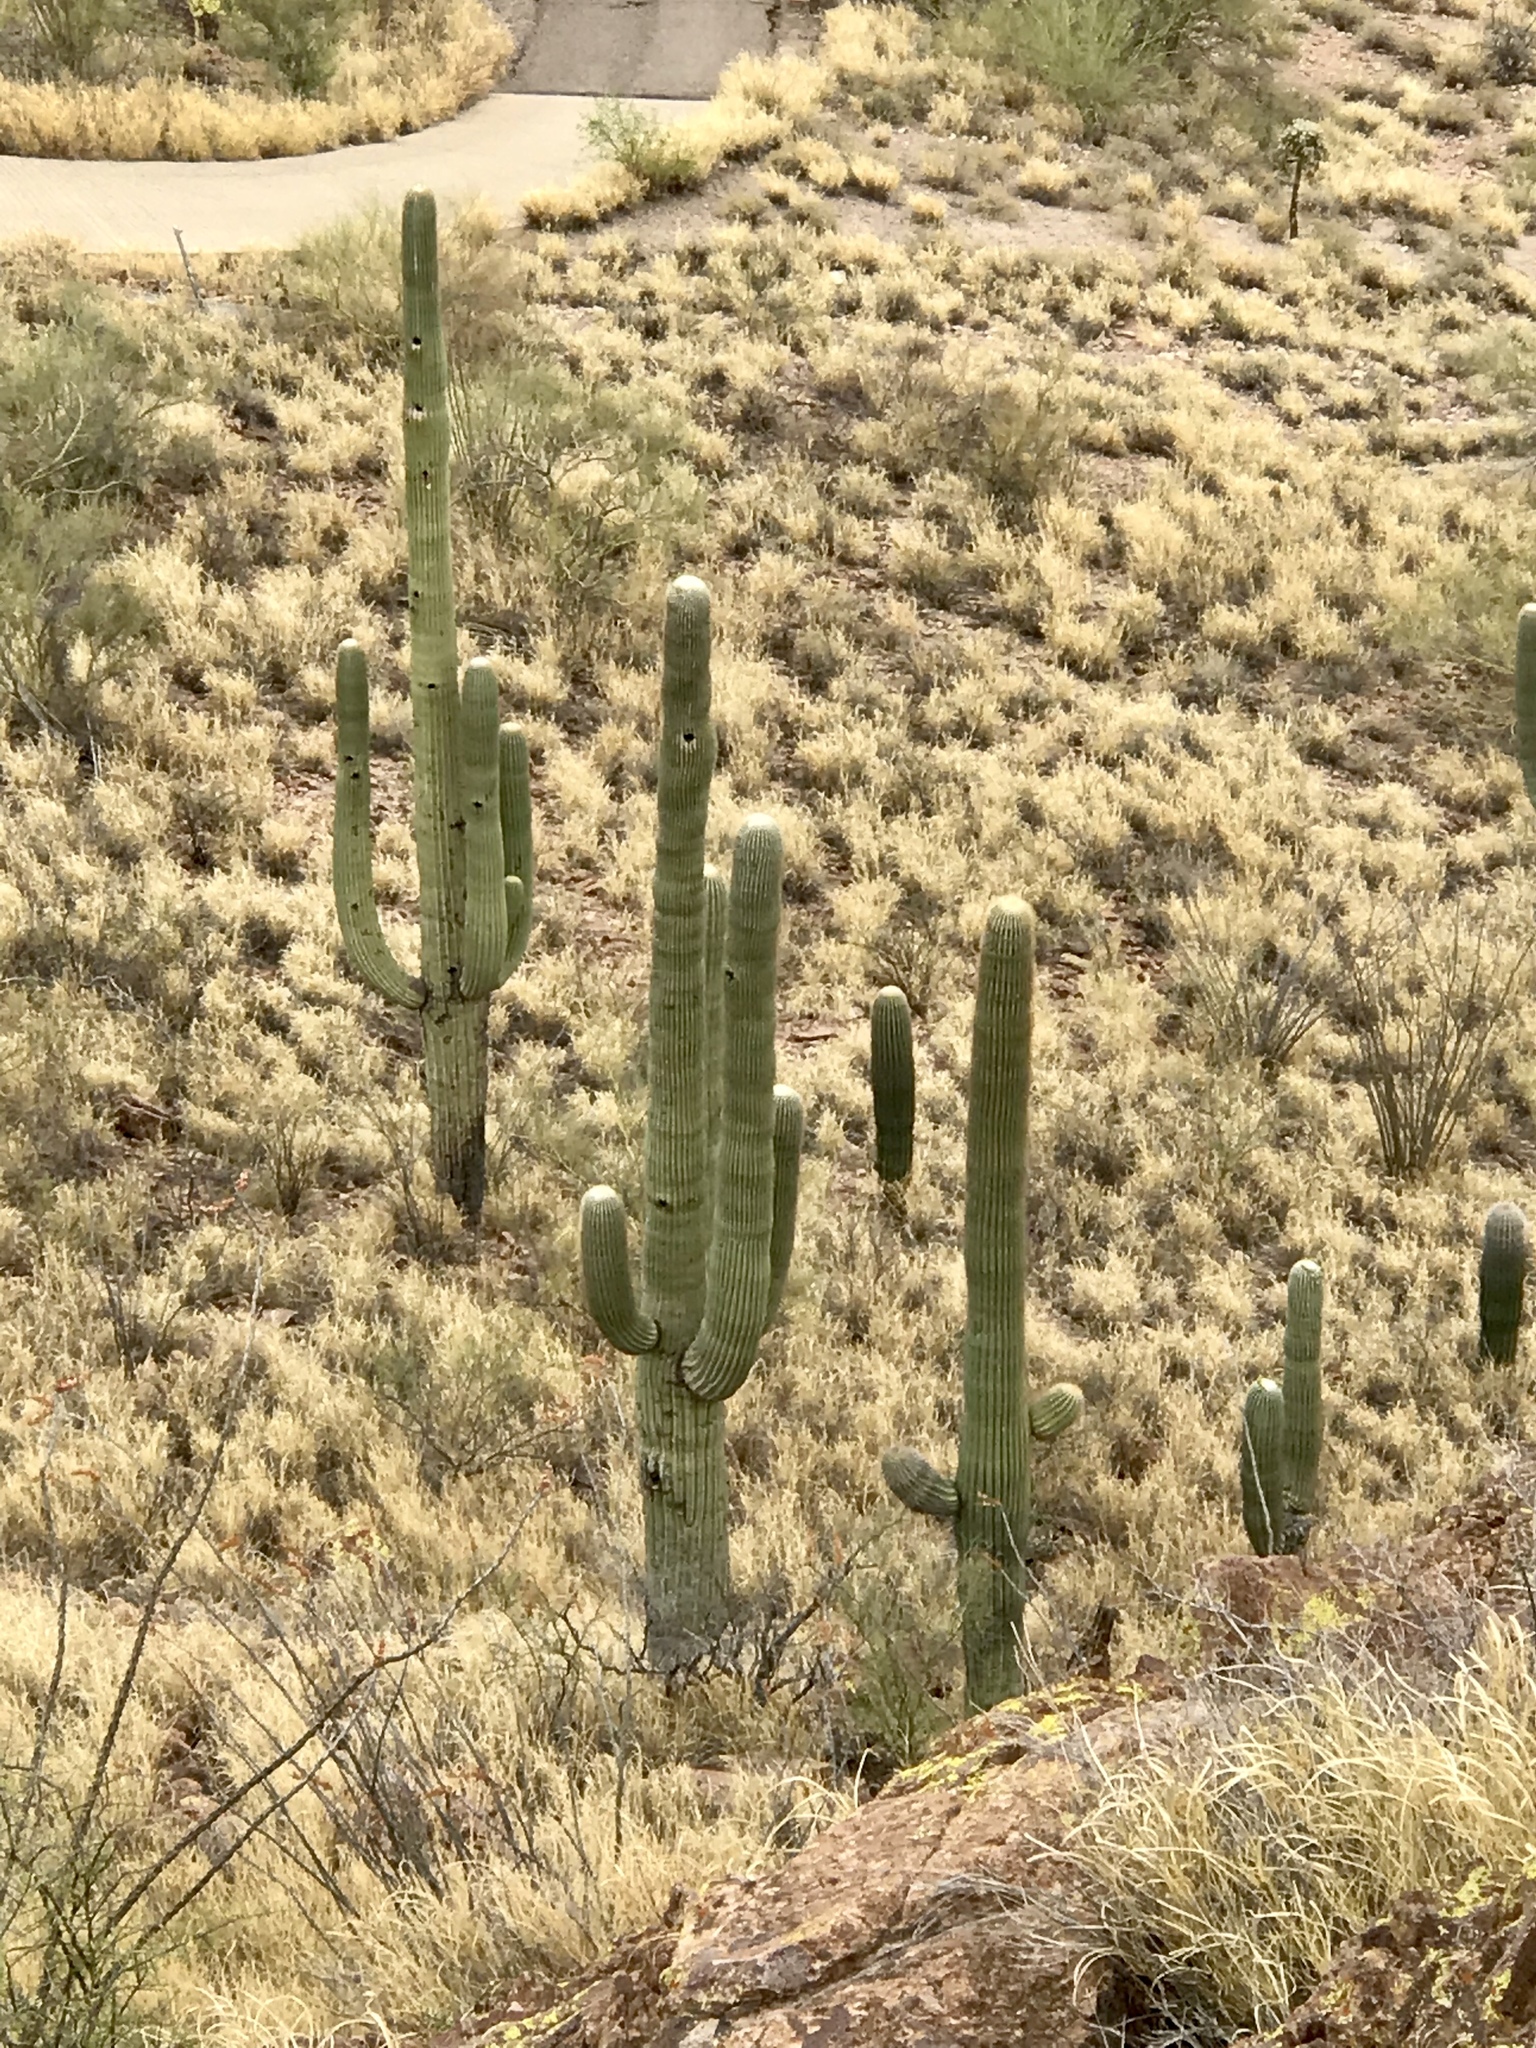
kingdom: Plantae
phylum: Tracheophyta
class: Magnoliopsida
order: Caryophyllales
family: Cactaceae
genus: Carnegiea
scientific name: Carnegiea gigantea
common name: Saguaro
